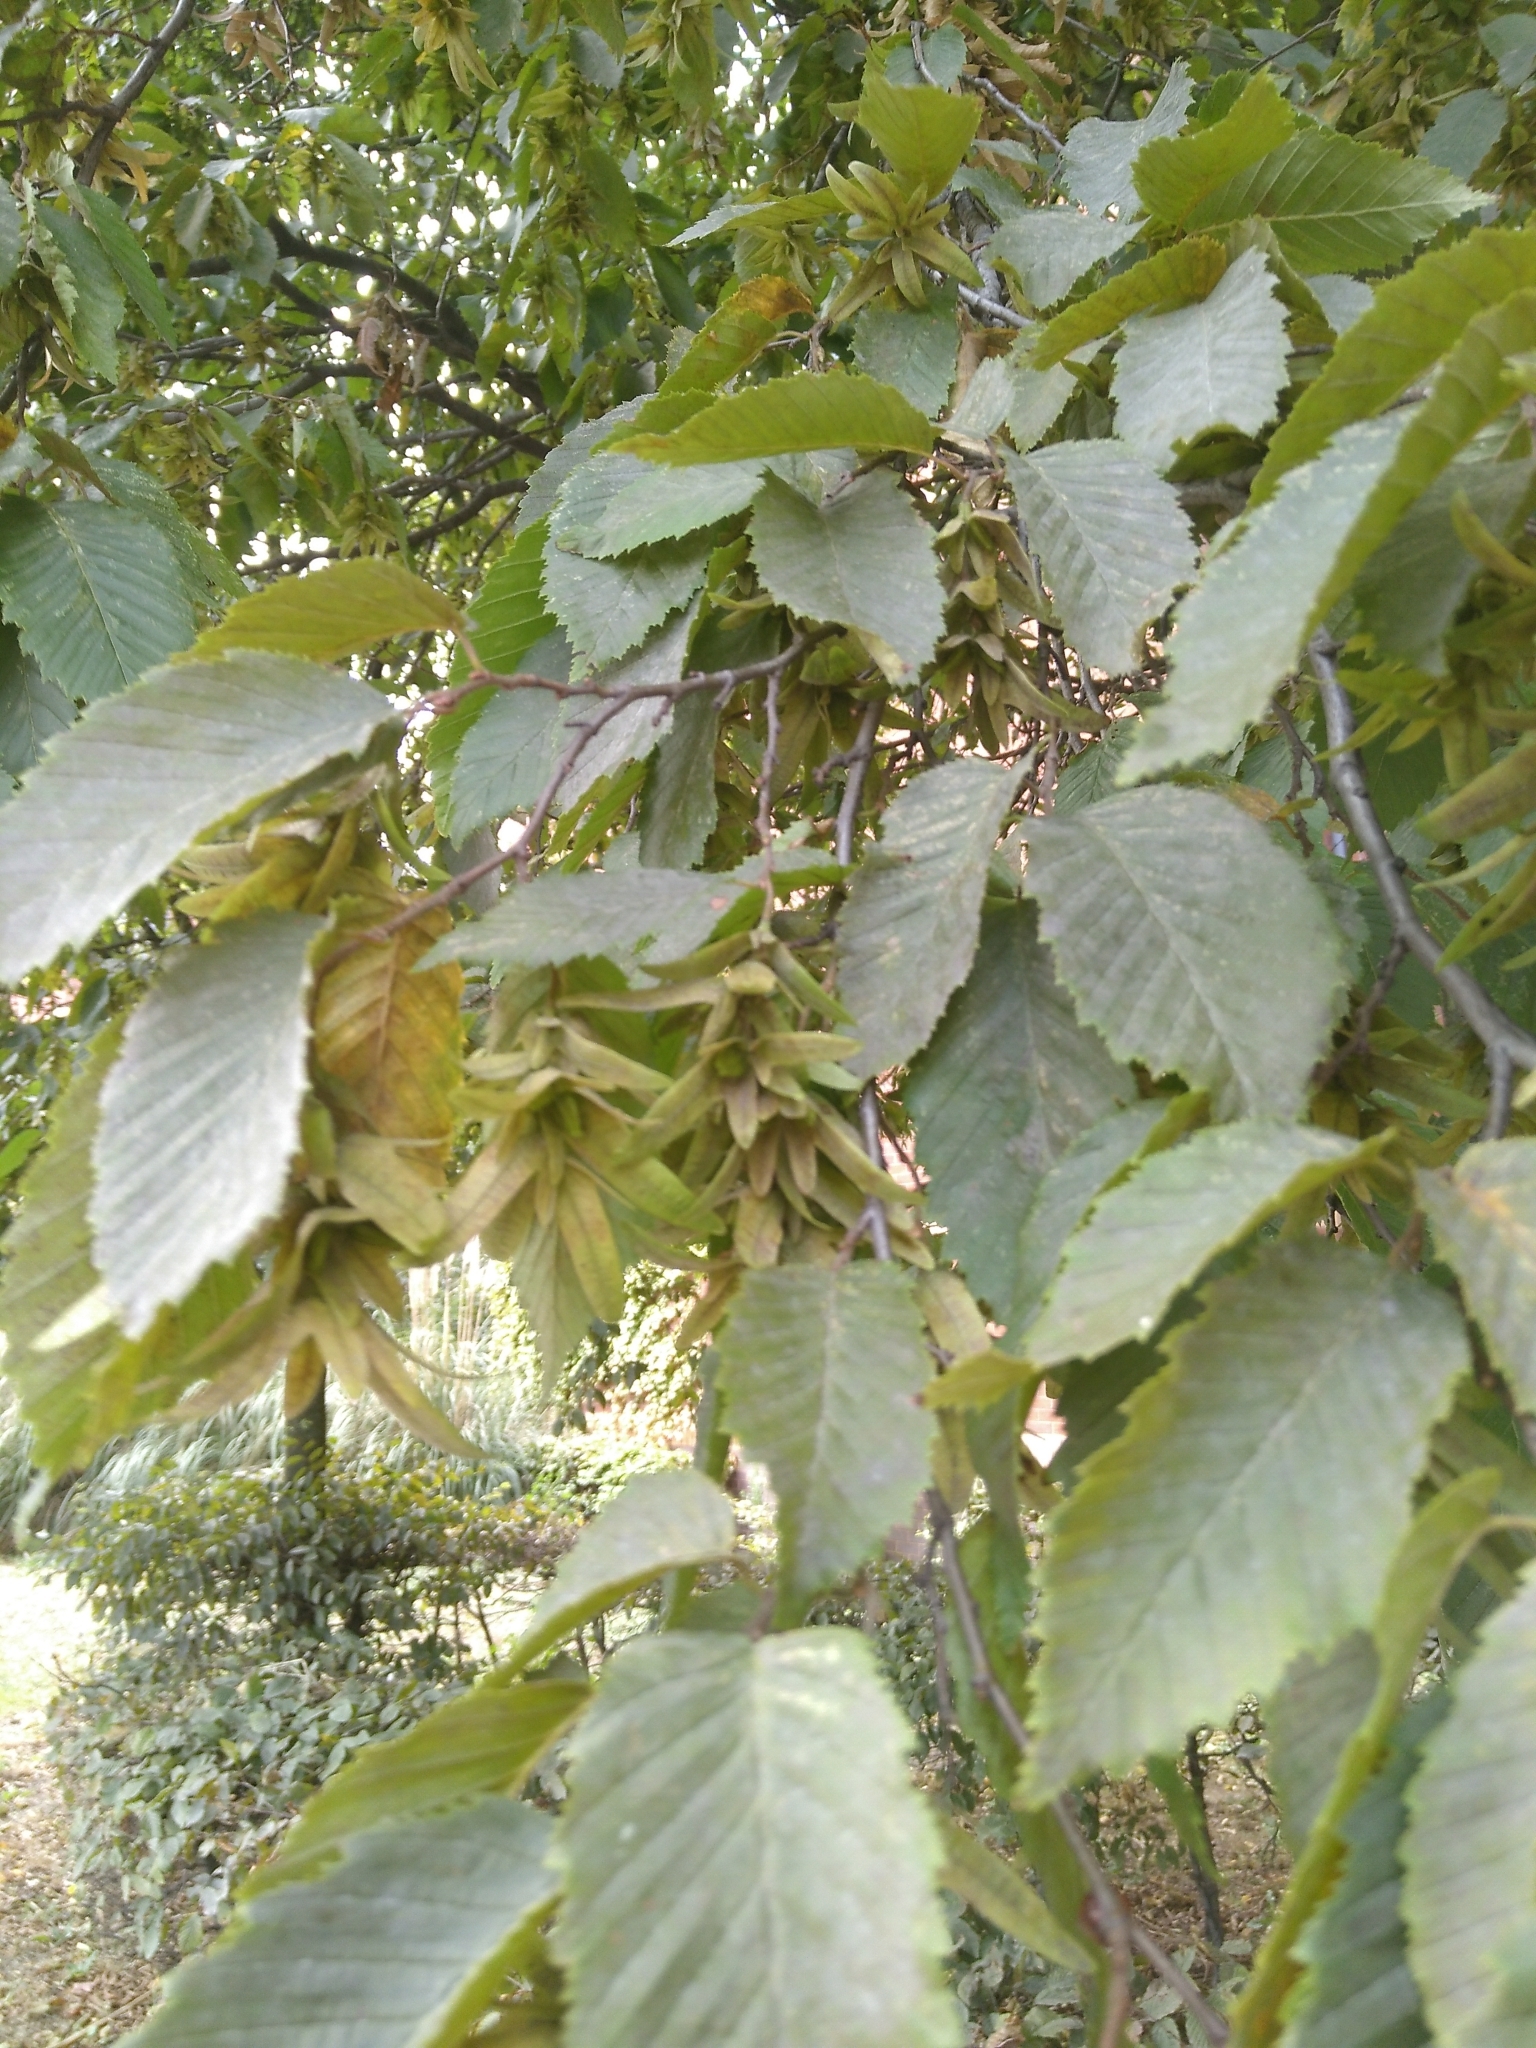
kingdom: Plantae
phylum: Tracheophyta
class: Magnoliopsida
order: Fagales
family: Betulaceae
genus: Carpinus
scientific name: Carpinus betulus
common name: Hornbeam
